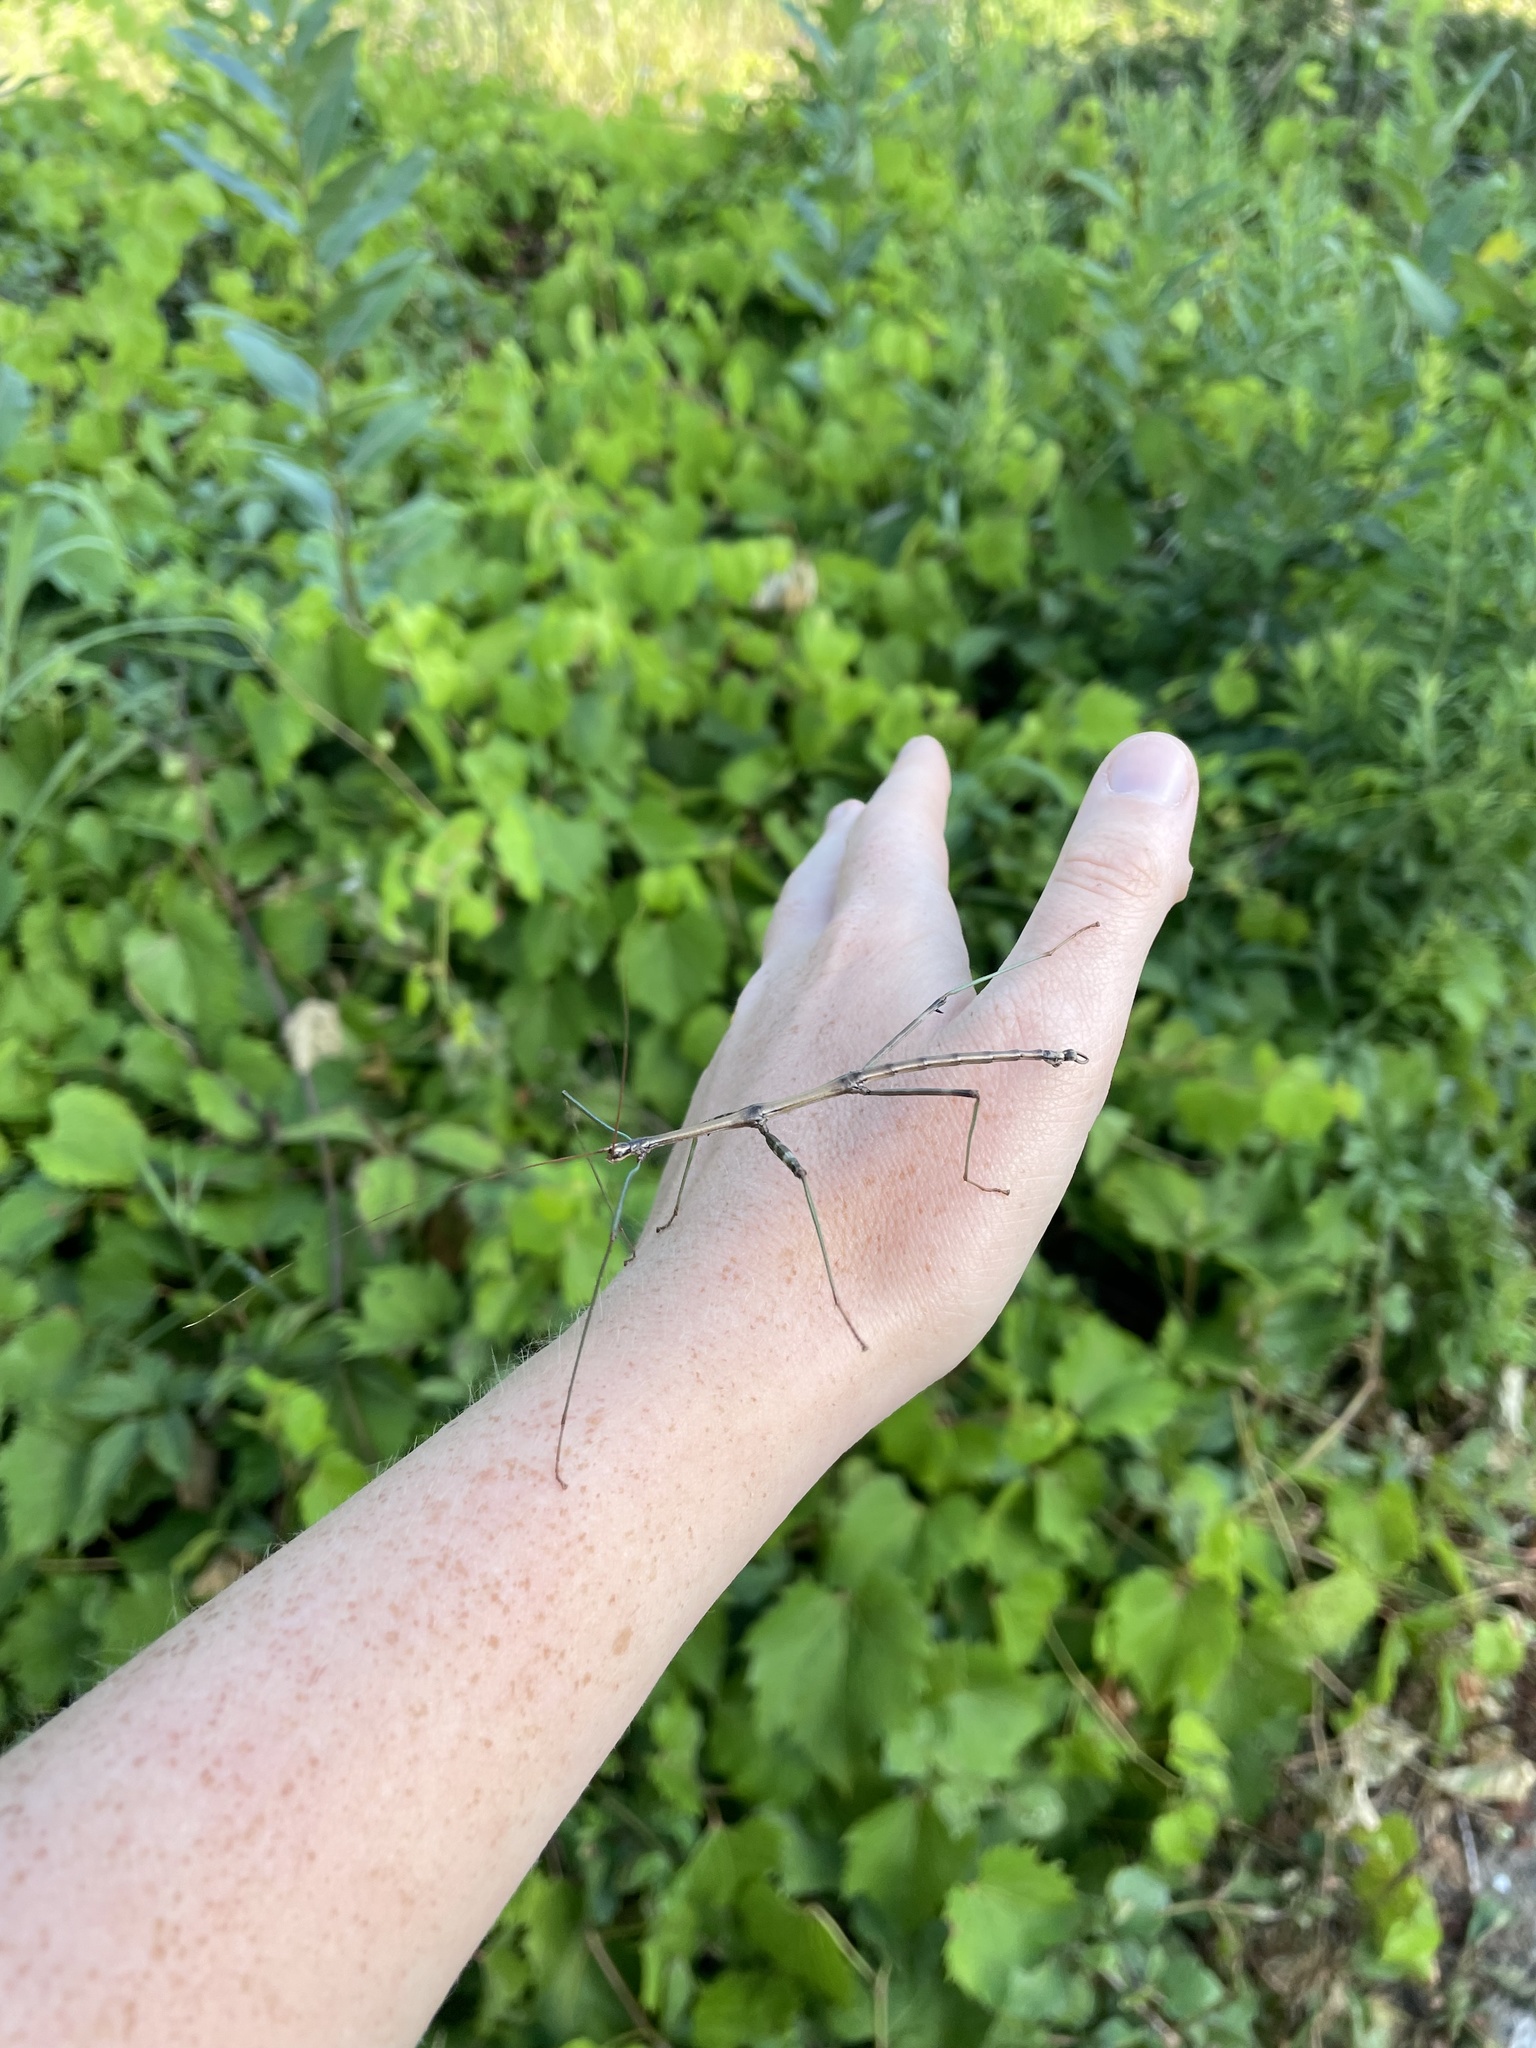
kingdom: Animalia
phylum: Arthropoda
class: Insecta
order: Phasmida
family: Diapheromeridae
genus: Diapheromera
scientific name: Diapheromera femorata
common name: Common american walkingstick
